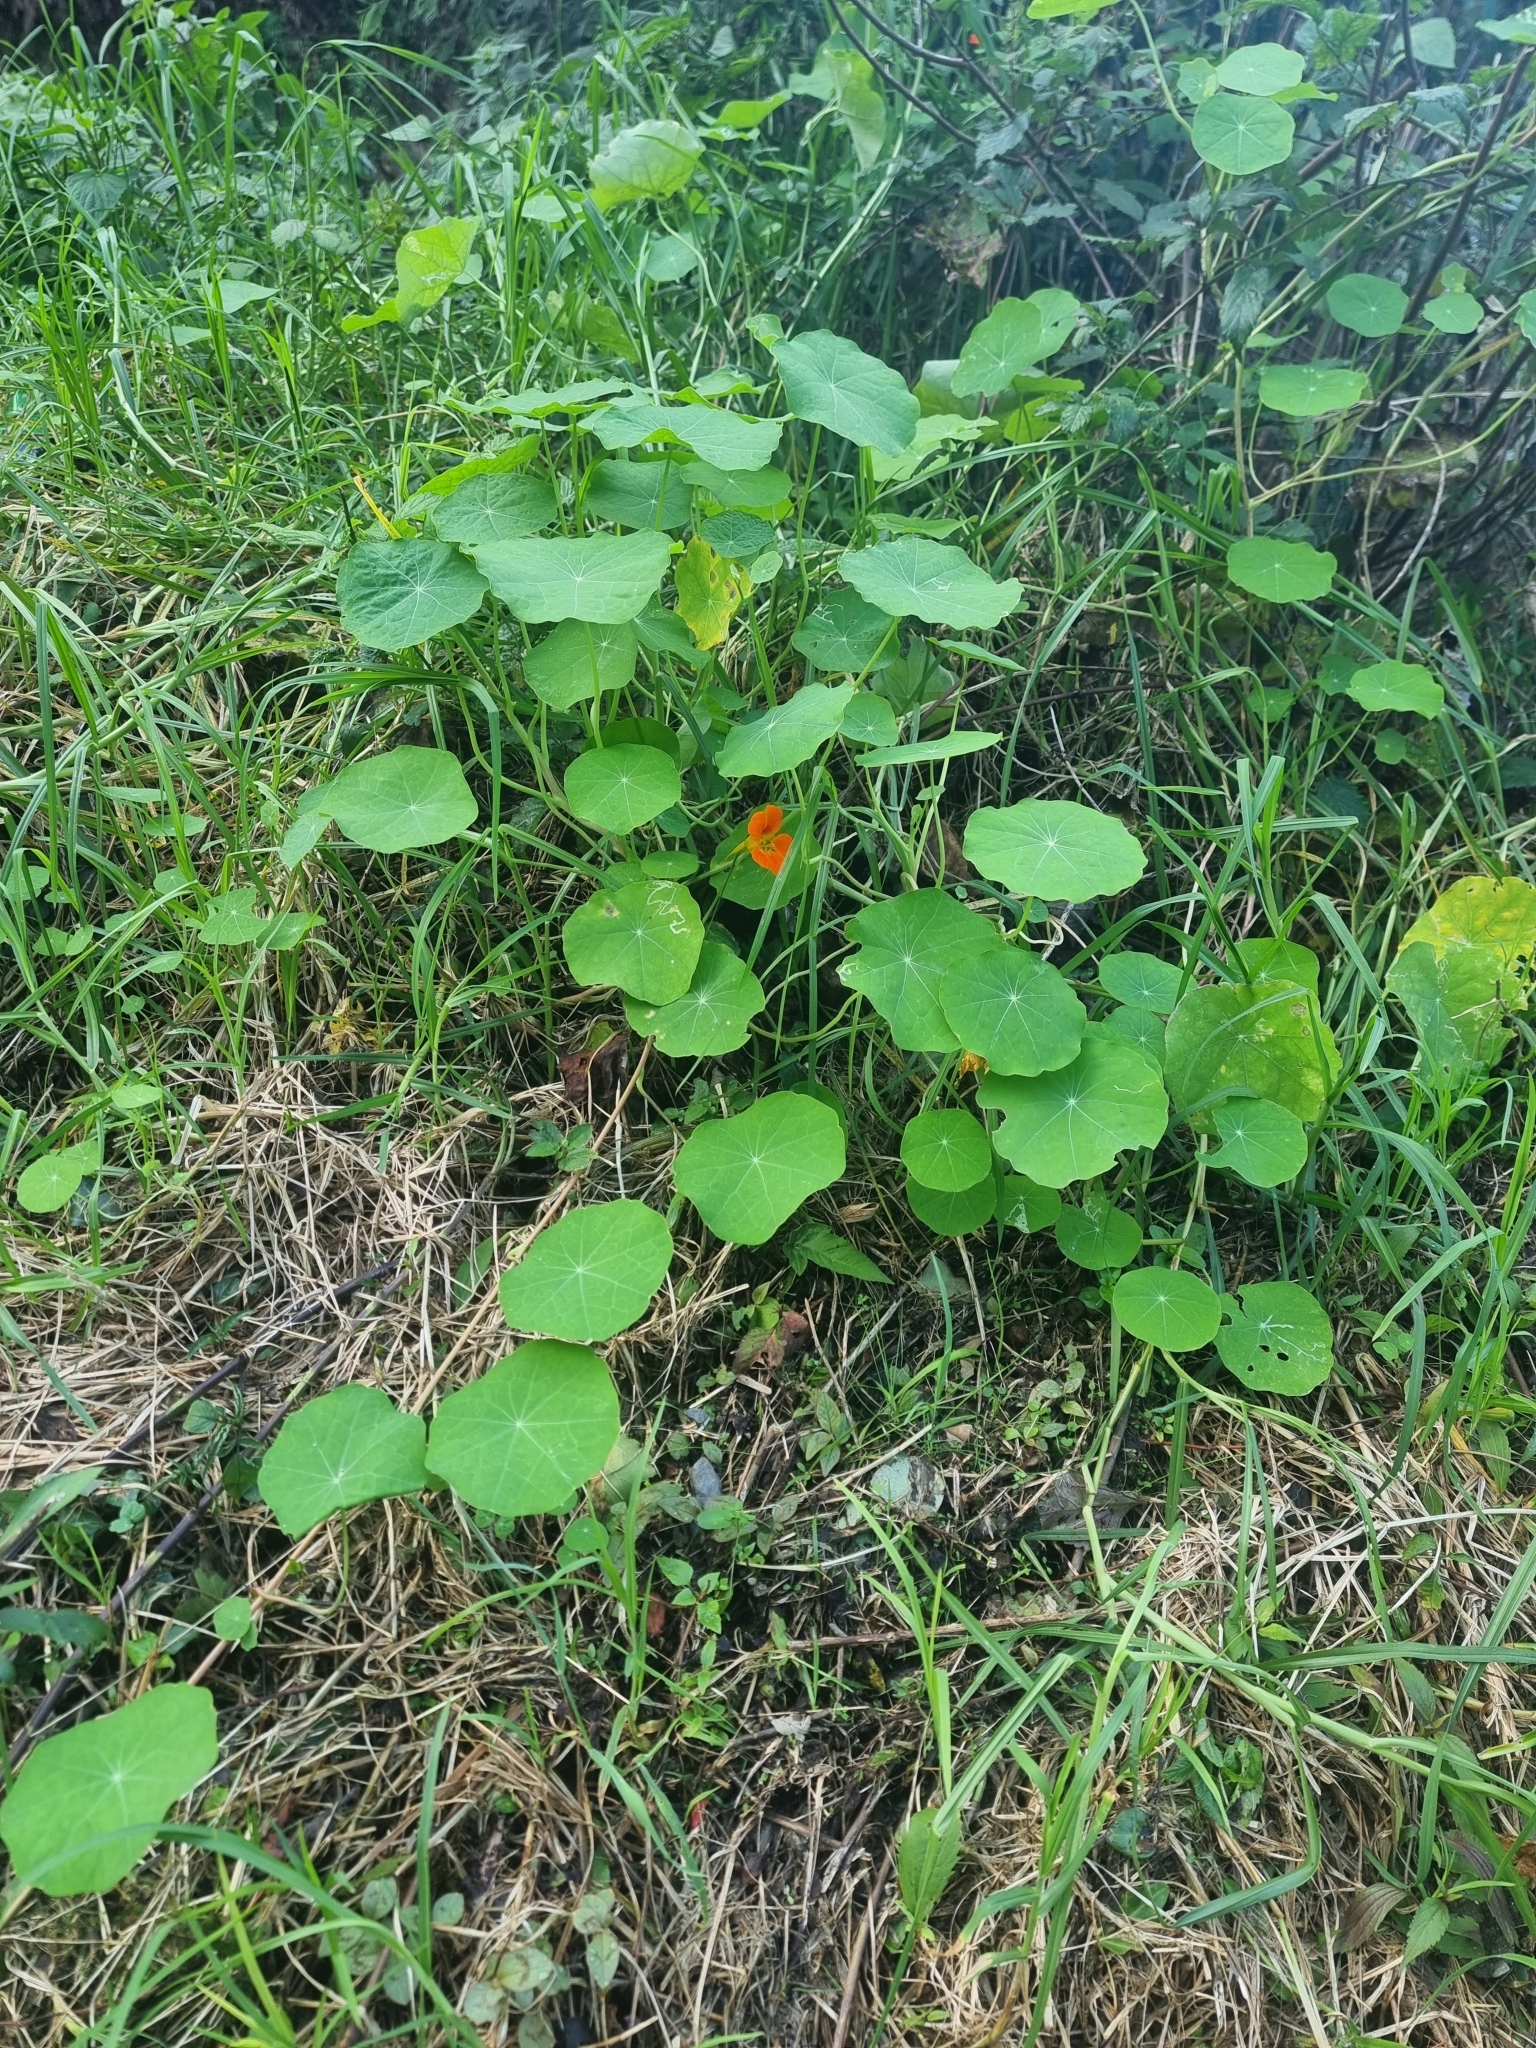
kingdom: Plantae
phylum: Tracheophyta
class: Magnoliopsida
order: Brassicales
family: Tropaeolaceae
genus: Tropaeolum
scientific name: Tropaeolum majus
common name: Nasturtium
